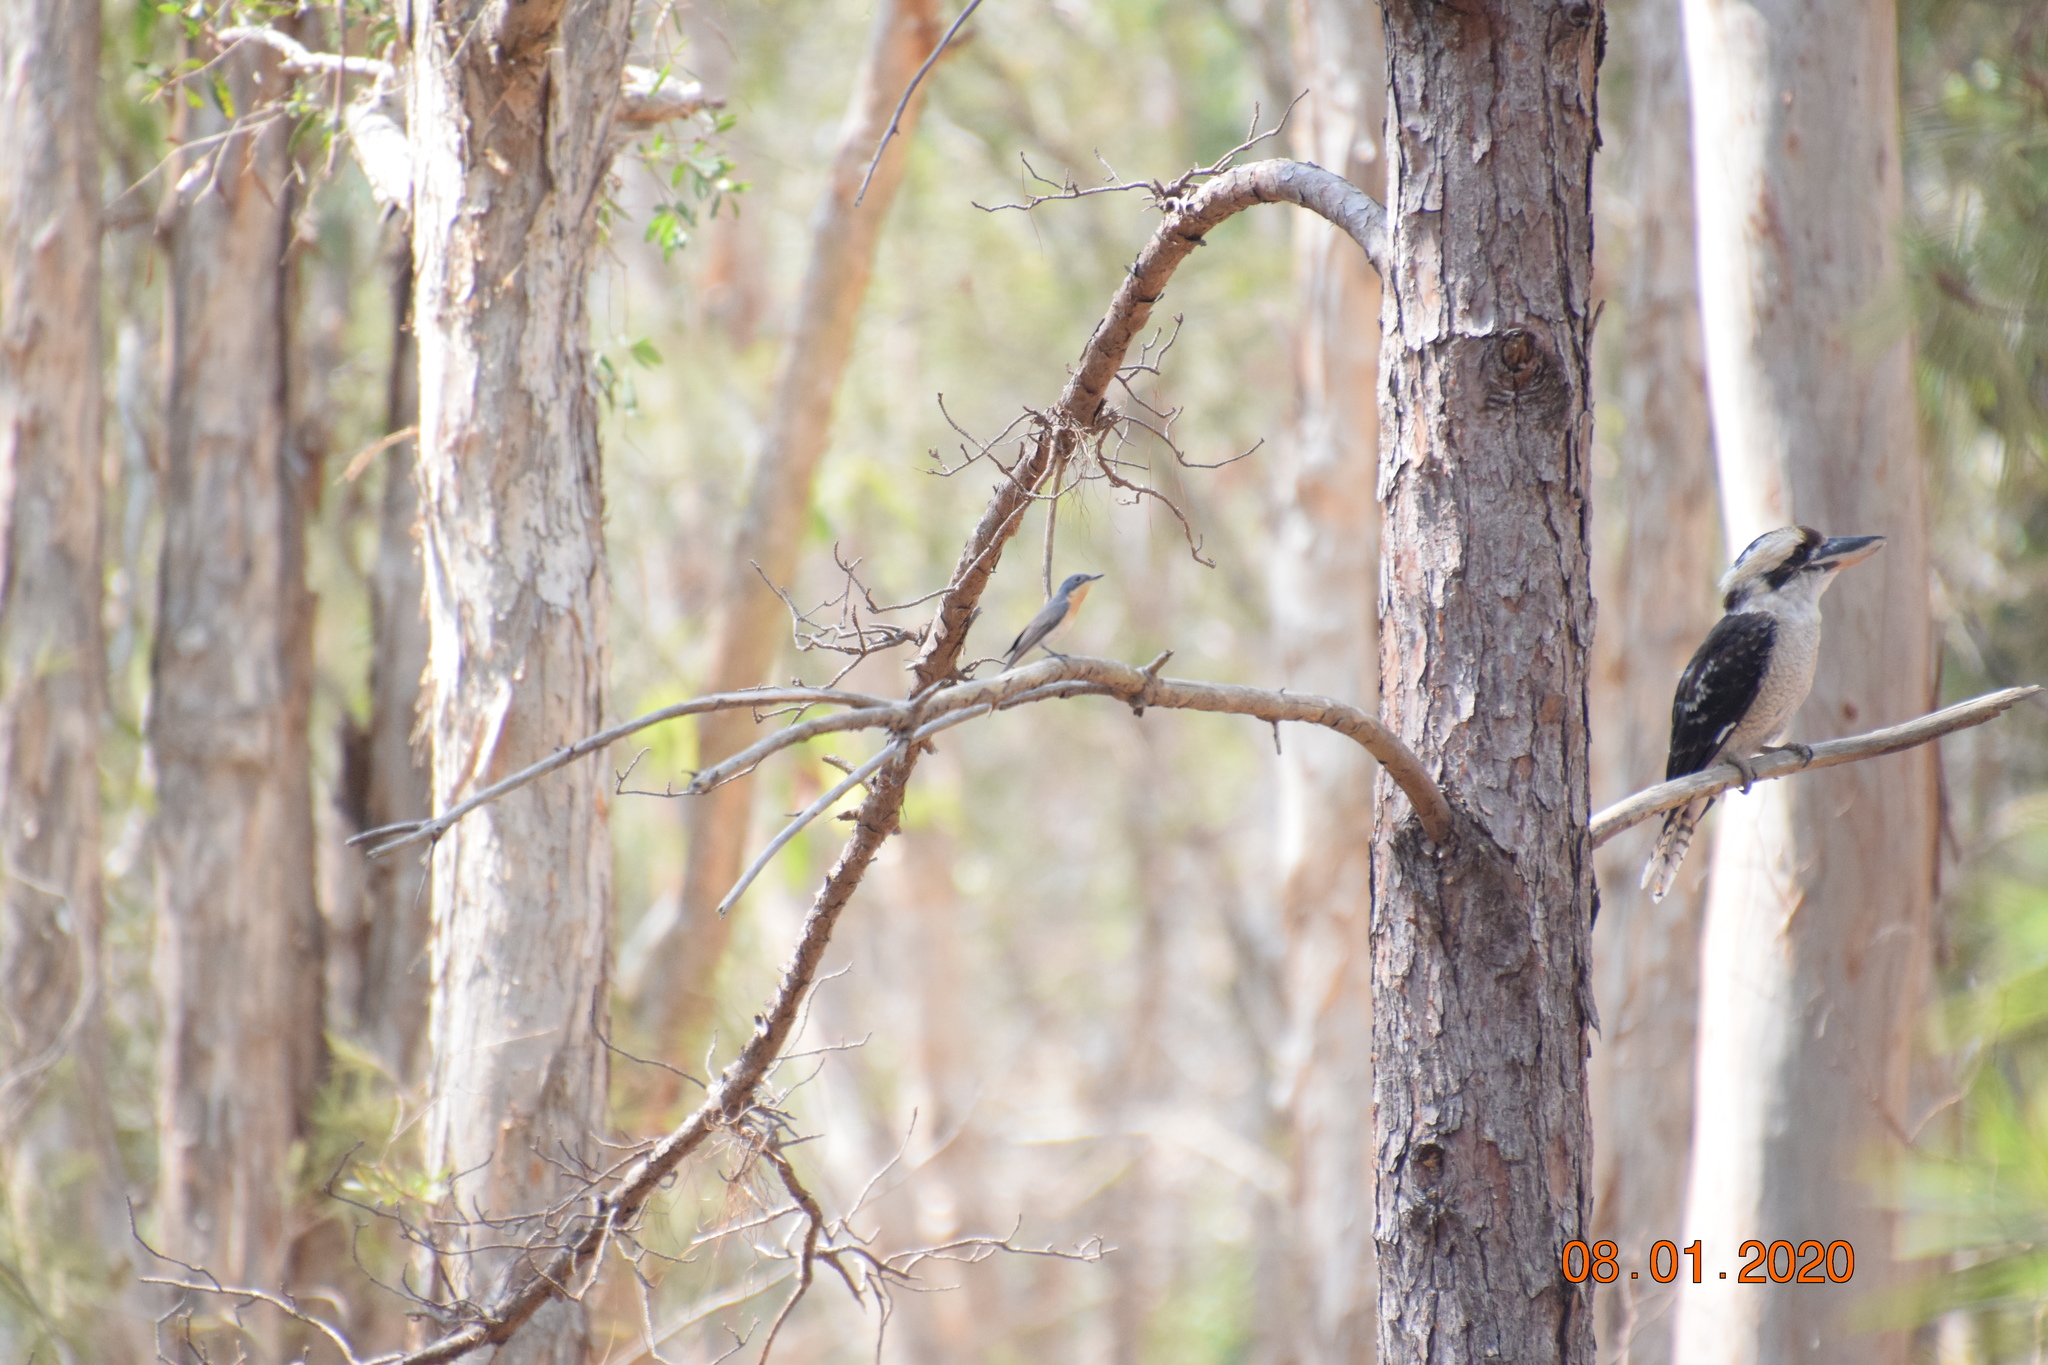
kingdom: Animalia
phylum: Chordata
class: Aves
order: Passeriformes
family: Monarchidae
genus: Myiagra
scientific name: Myiagra rubecula
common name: Leaden flycatcher
